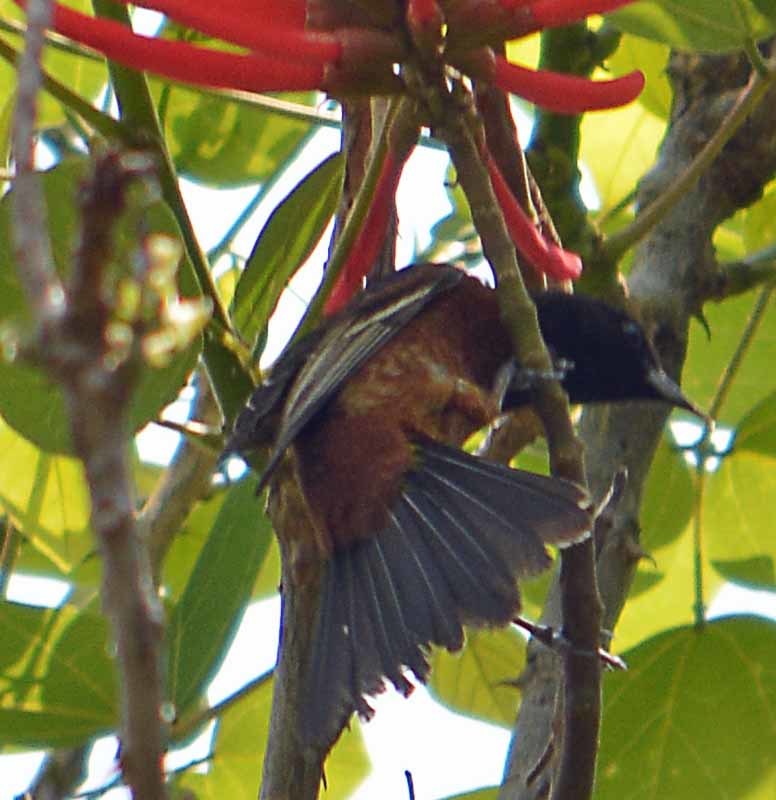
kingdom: Animalia
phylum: Chordata
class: Aves
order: Passeriformes
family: Icteridae
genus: Icterus
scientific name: Icterus spurius
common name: Orchard oriole
